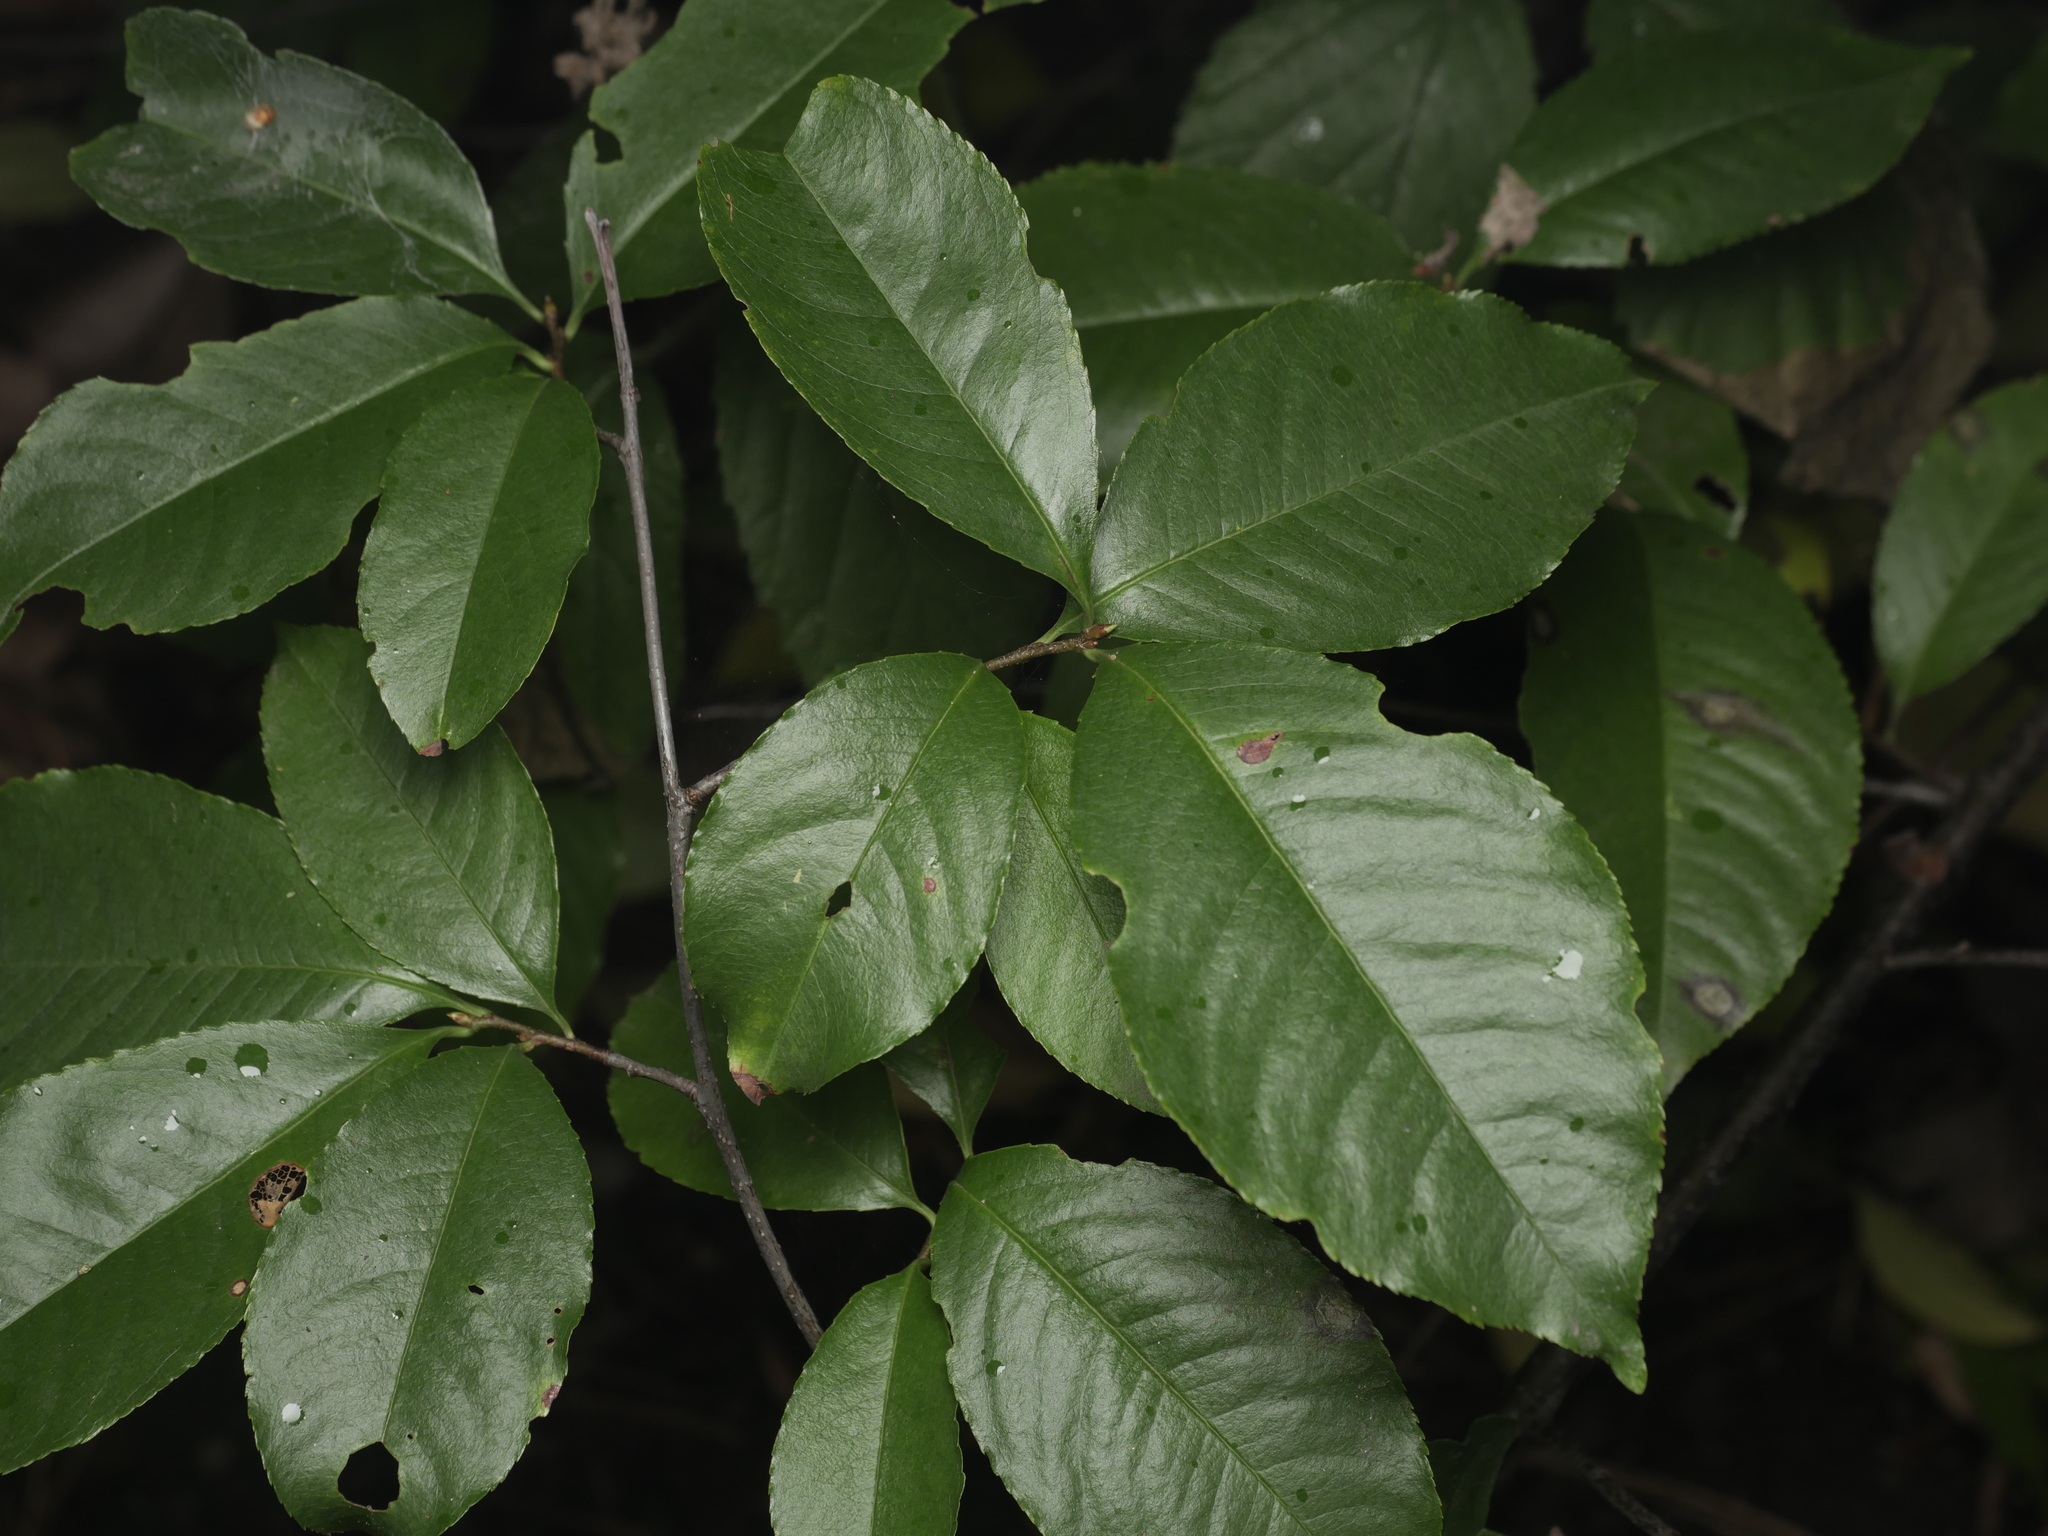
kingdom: Plantae
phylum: Tracheophyta
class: Magnoliopsida
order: Rosales
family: Rosaceae
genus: Prunus
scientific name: Prunus serotina
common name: Black cherry
